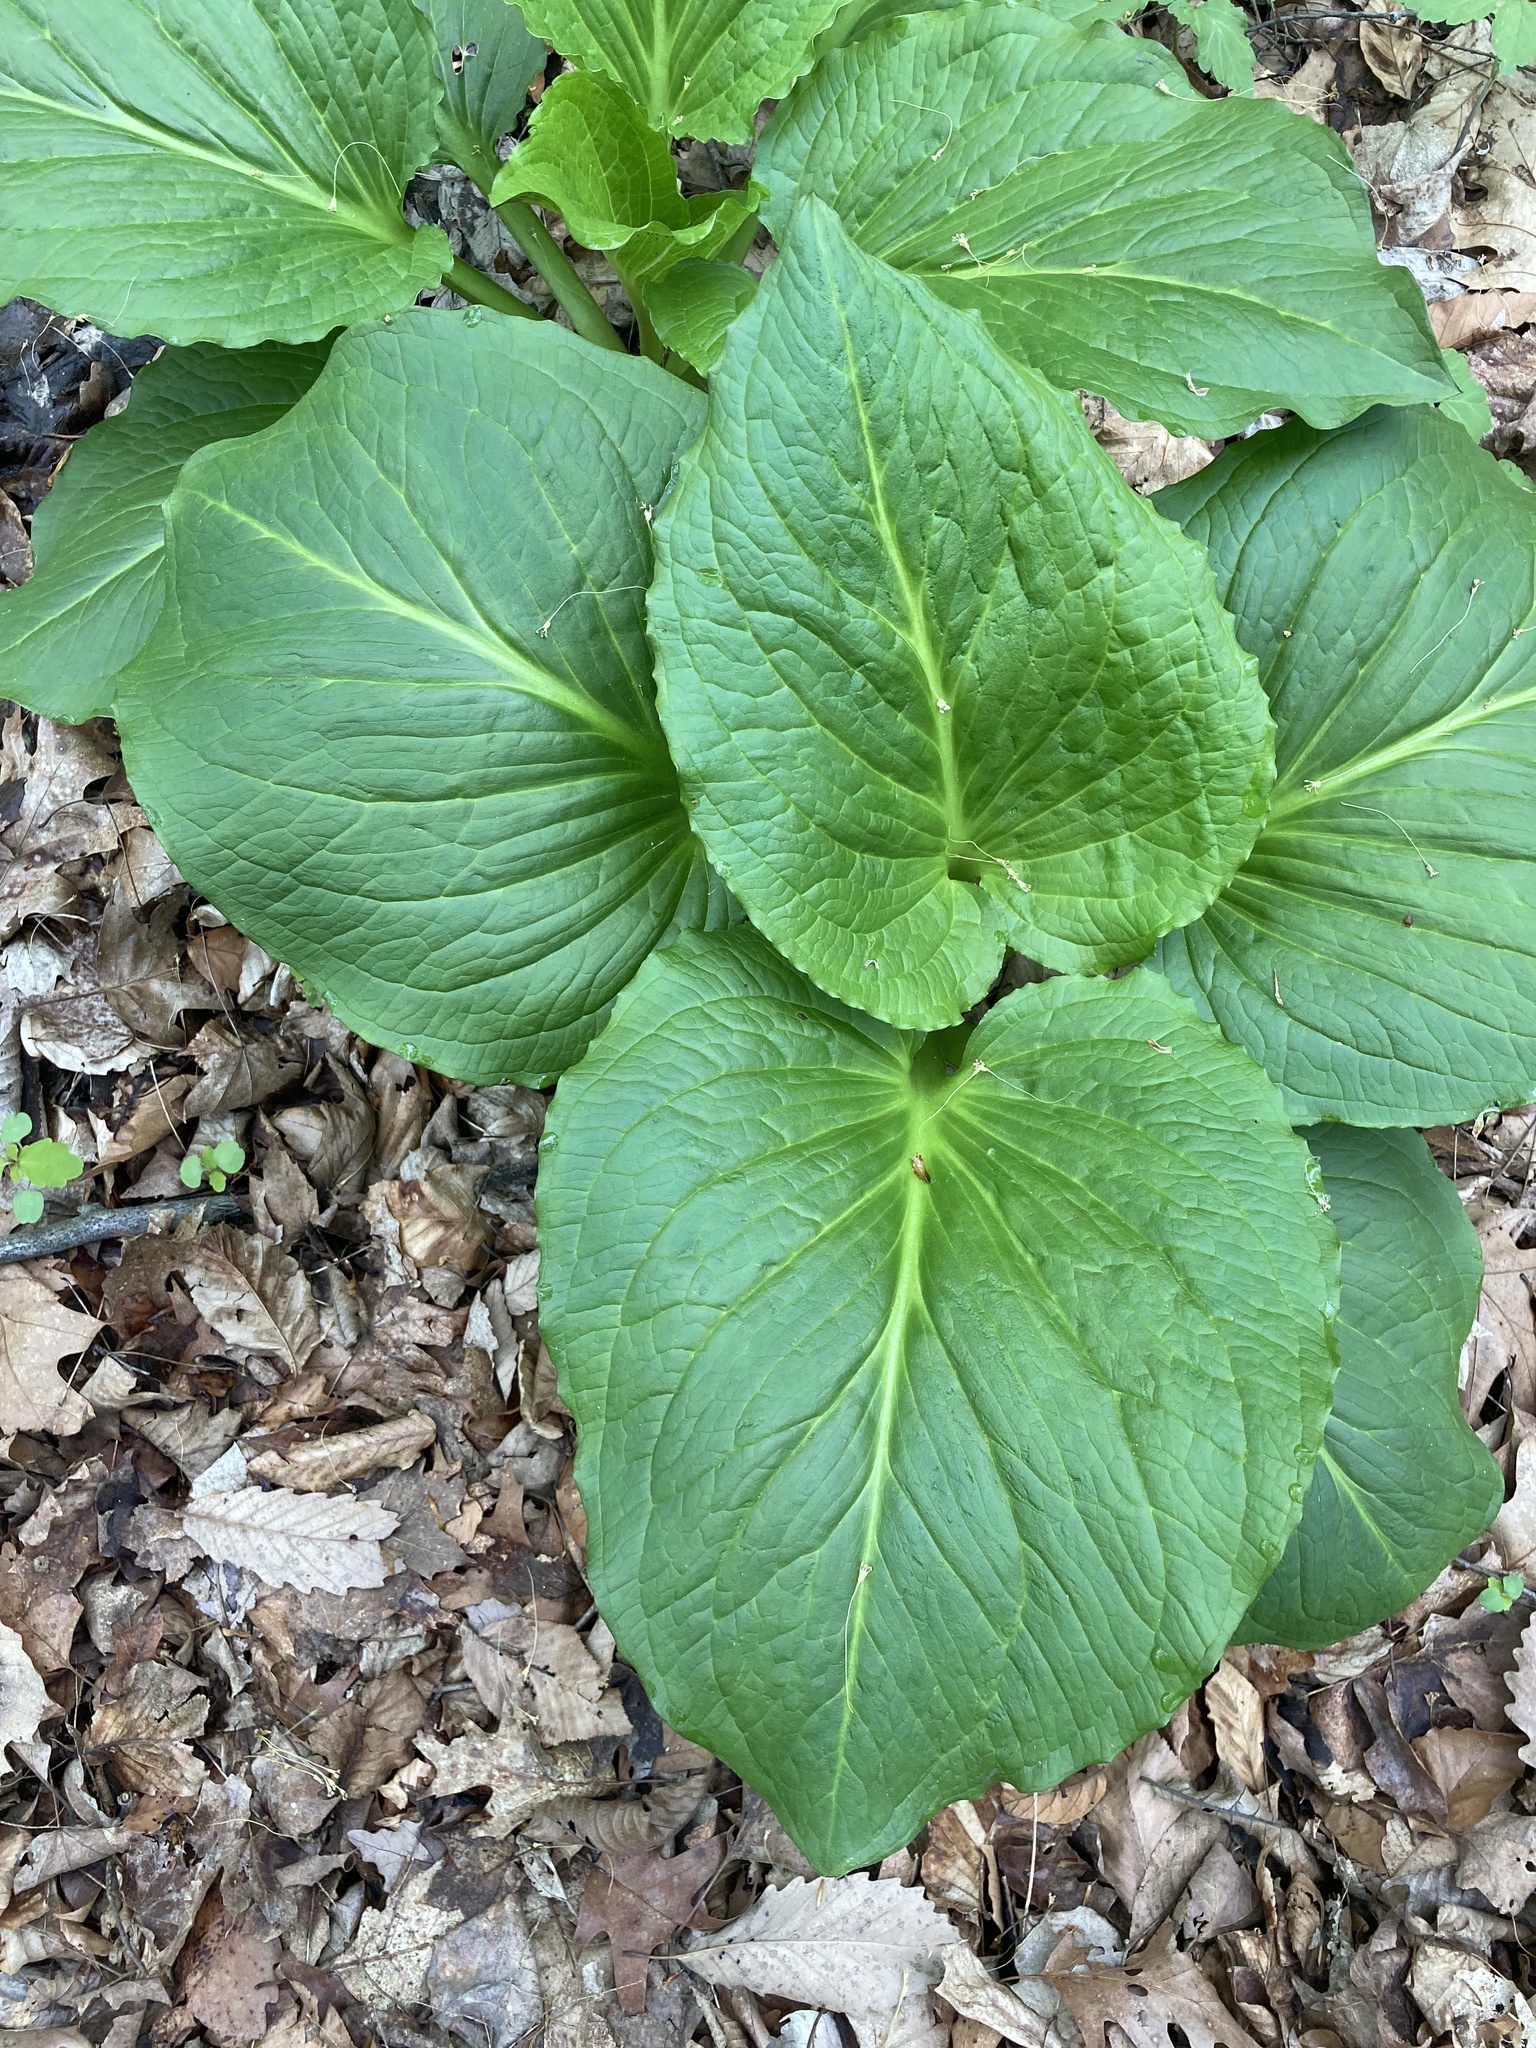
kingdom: Plantae
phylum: Tracheophyta
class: Liliopsida
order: Alismatales
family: Araceae
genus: Symplocarpus
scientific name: Symplocarpus foetidus
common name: Eastern skunk cabbage
